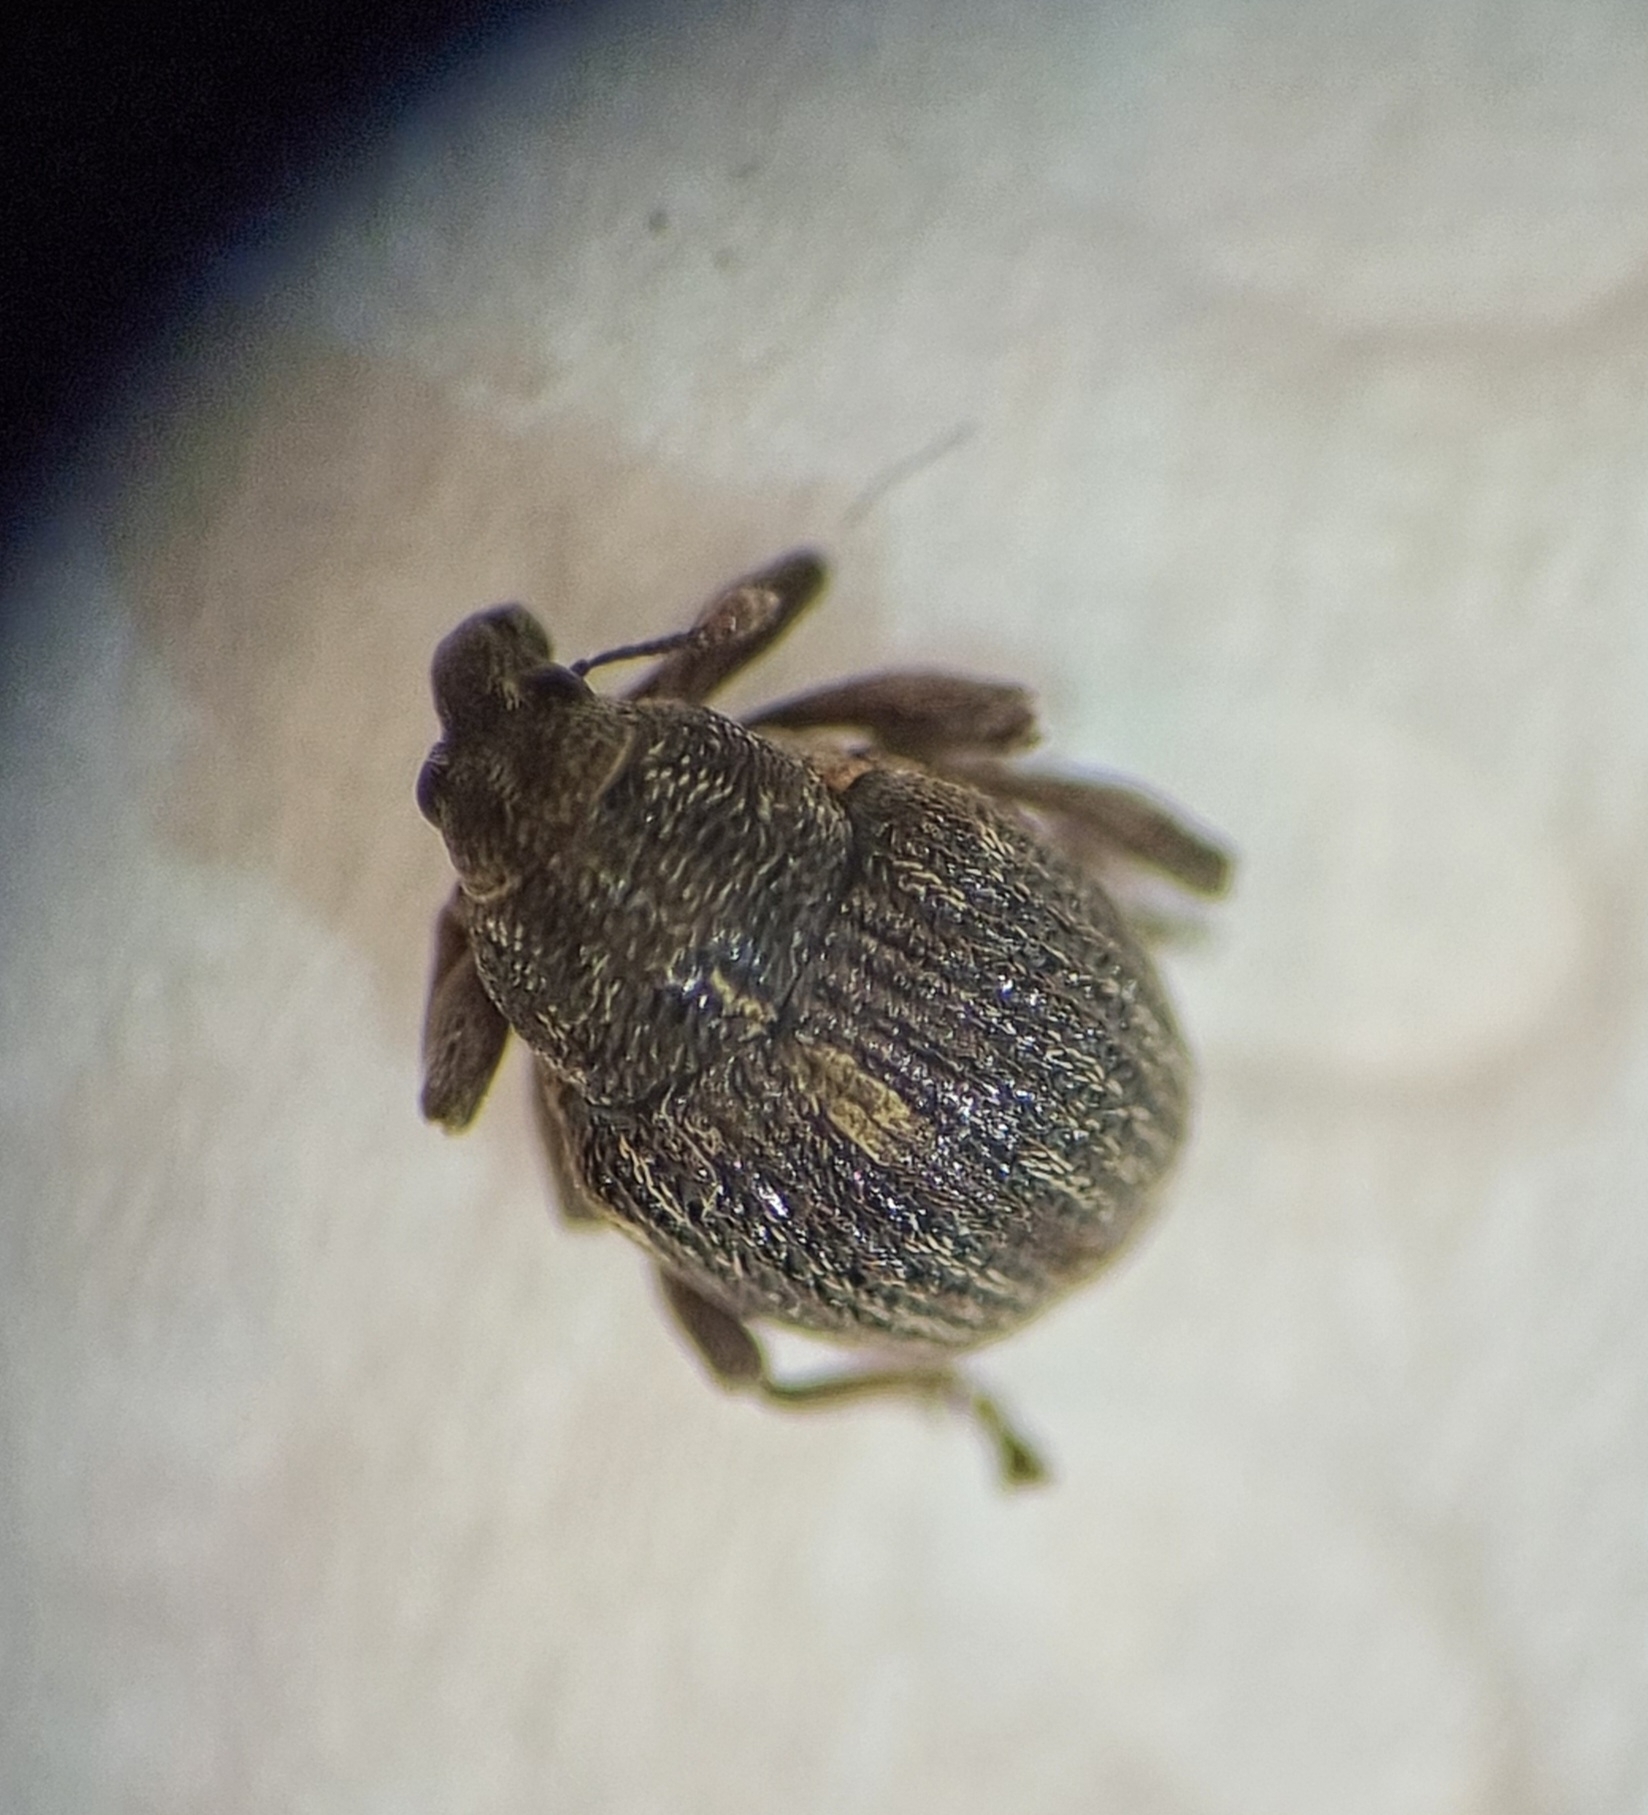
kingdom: Animalia
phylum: Arthropoda
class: Insecta
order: Coleoptera
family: Curculionidae
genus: Rhinoncus
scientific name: Rhinoncus leucostigma
